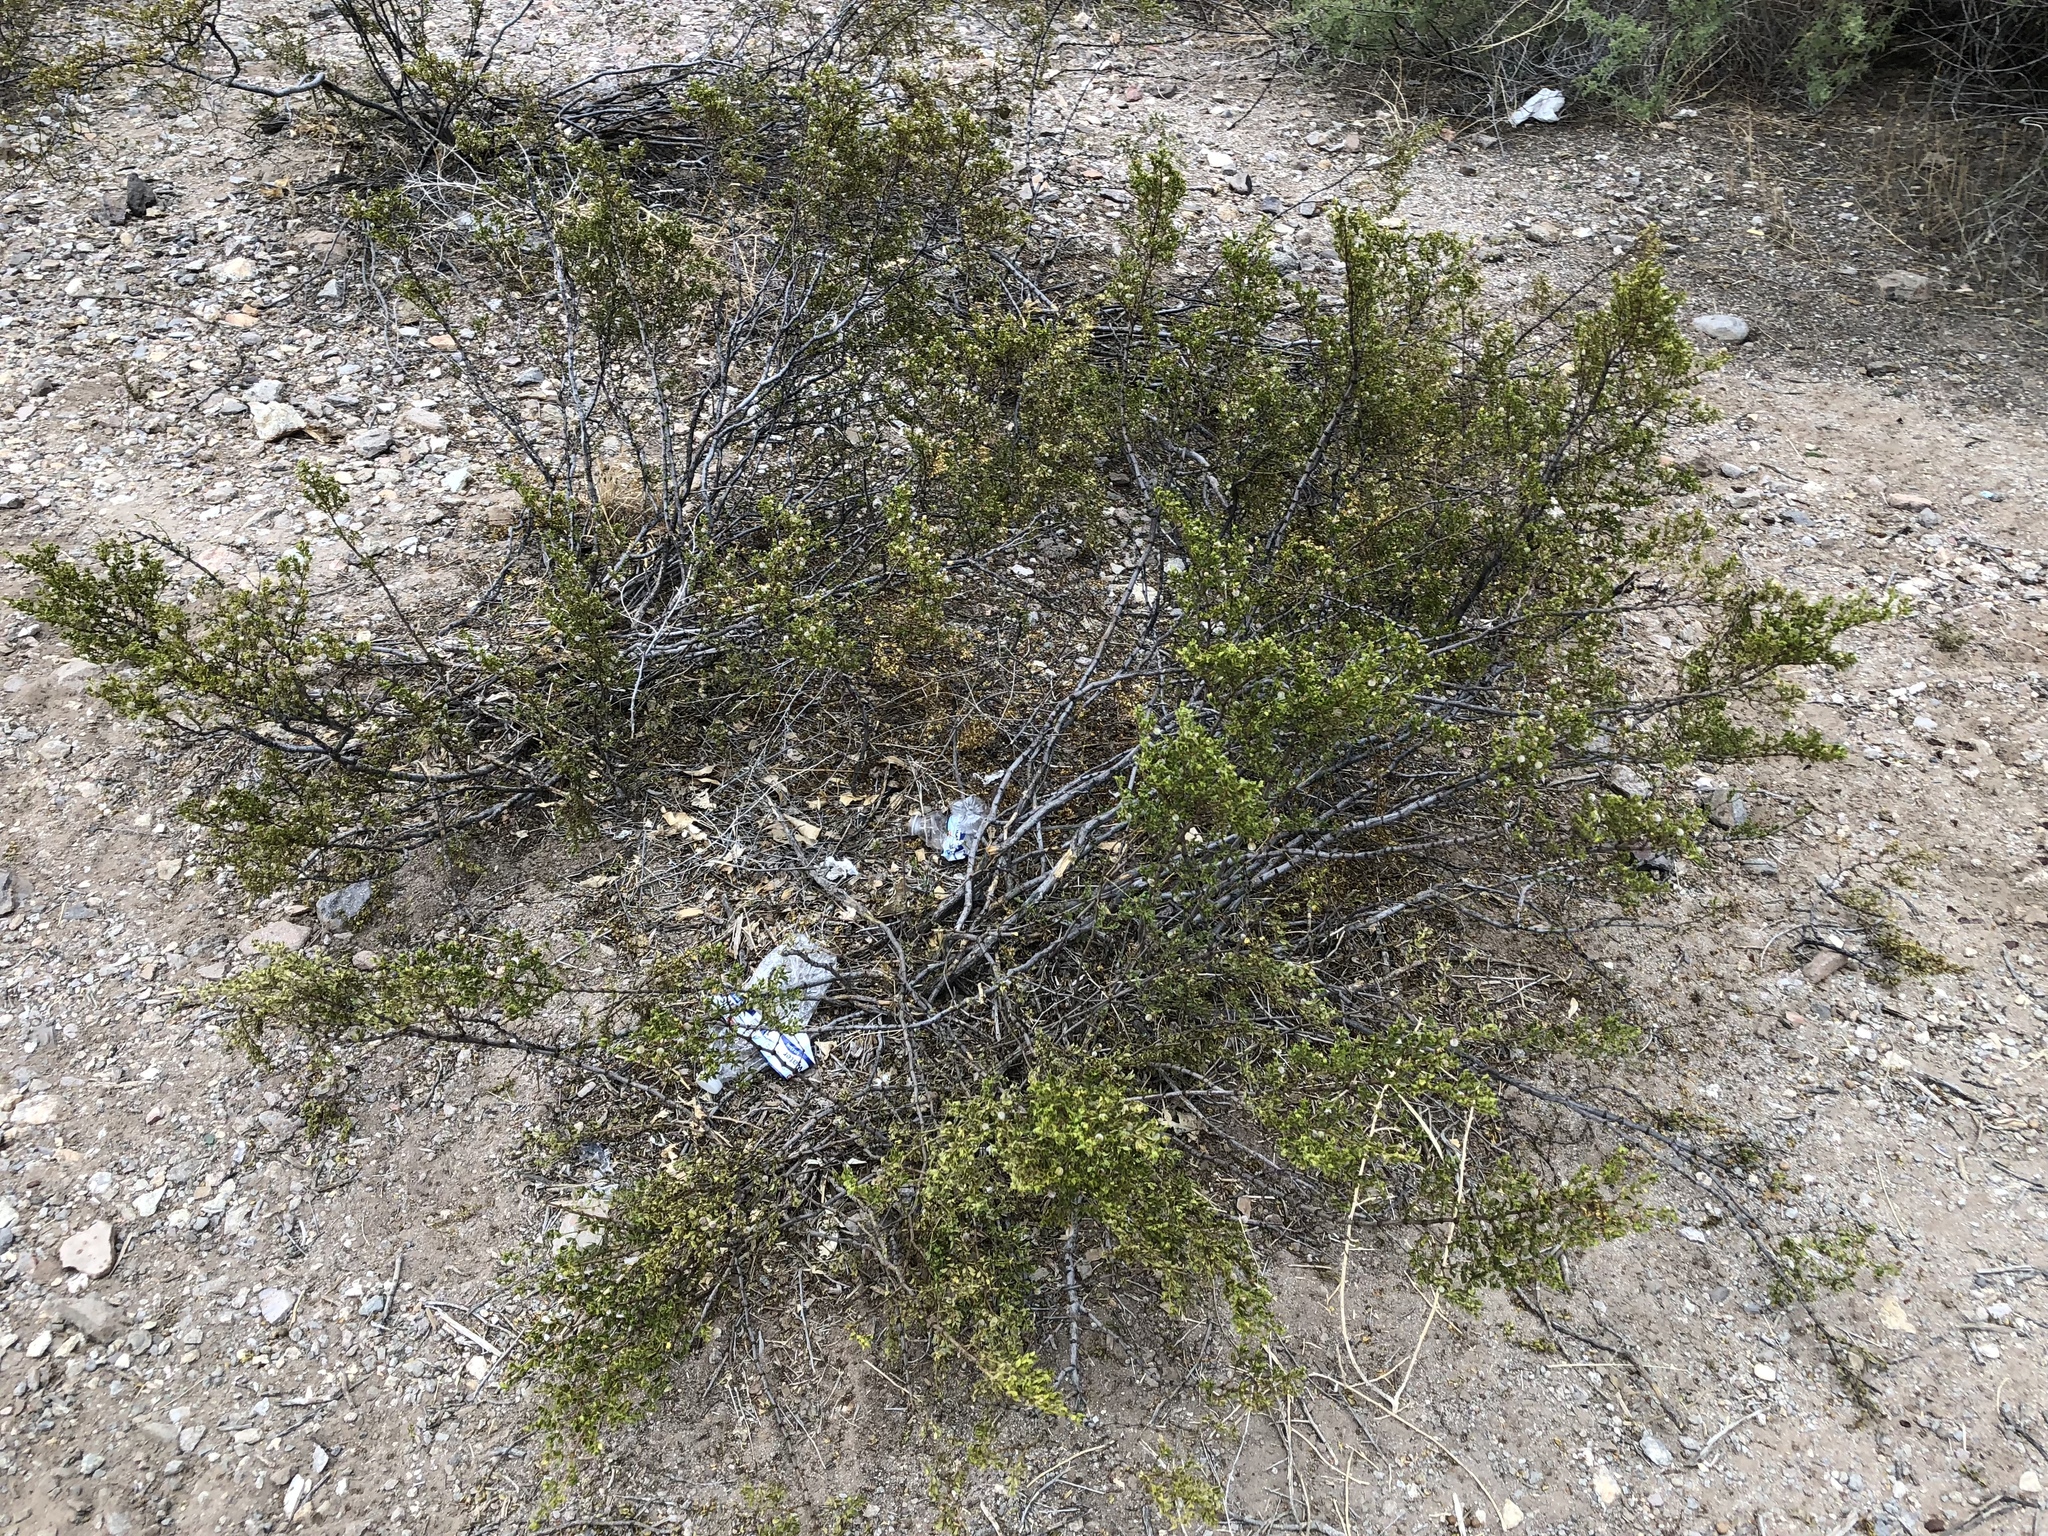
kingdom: Plantae
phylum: Tracheophyta
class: Magnoliopsida
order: Zygophyllales
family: Zygophyllaceae
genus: Larrea
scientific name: Larrea tridentata
